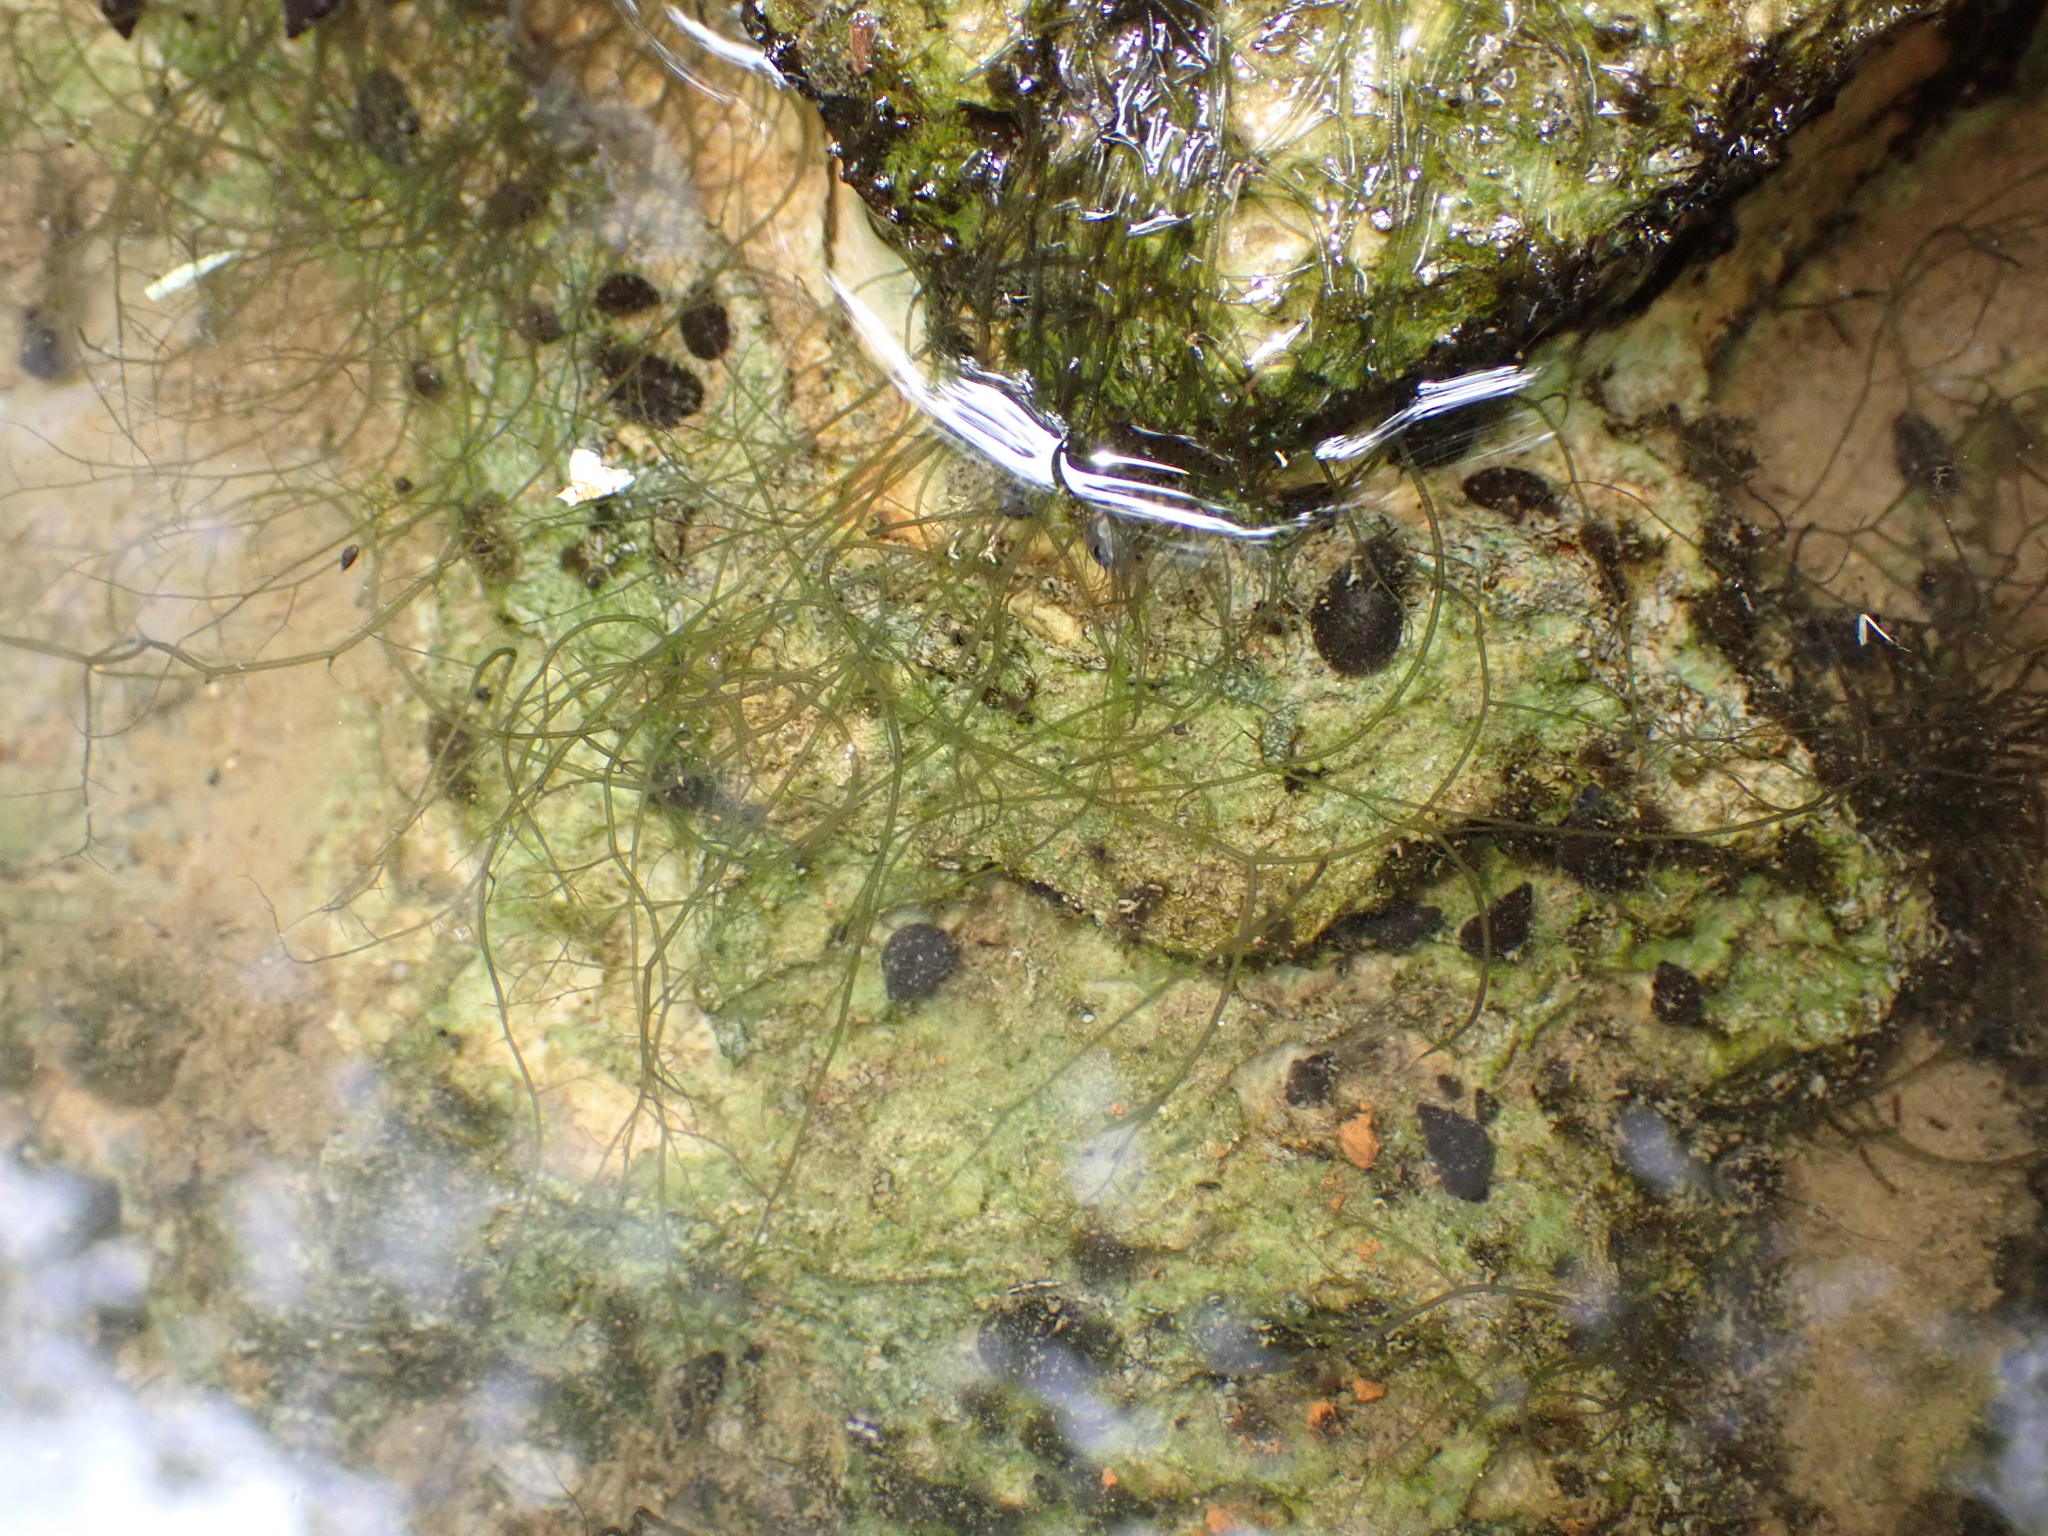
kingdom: Animalia
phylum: Mollusca
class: Gastropoda
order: Littorinimorpha
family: Tateidae
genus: Potamopyrgus
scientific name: Potamopyrgus antipodarum
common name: Jenkins' spire snail
